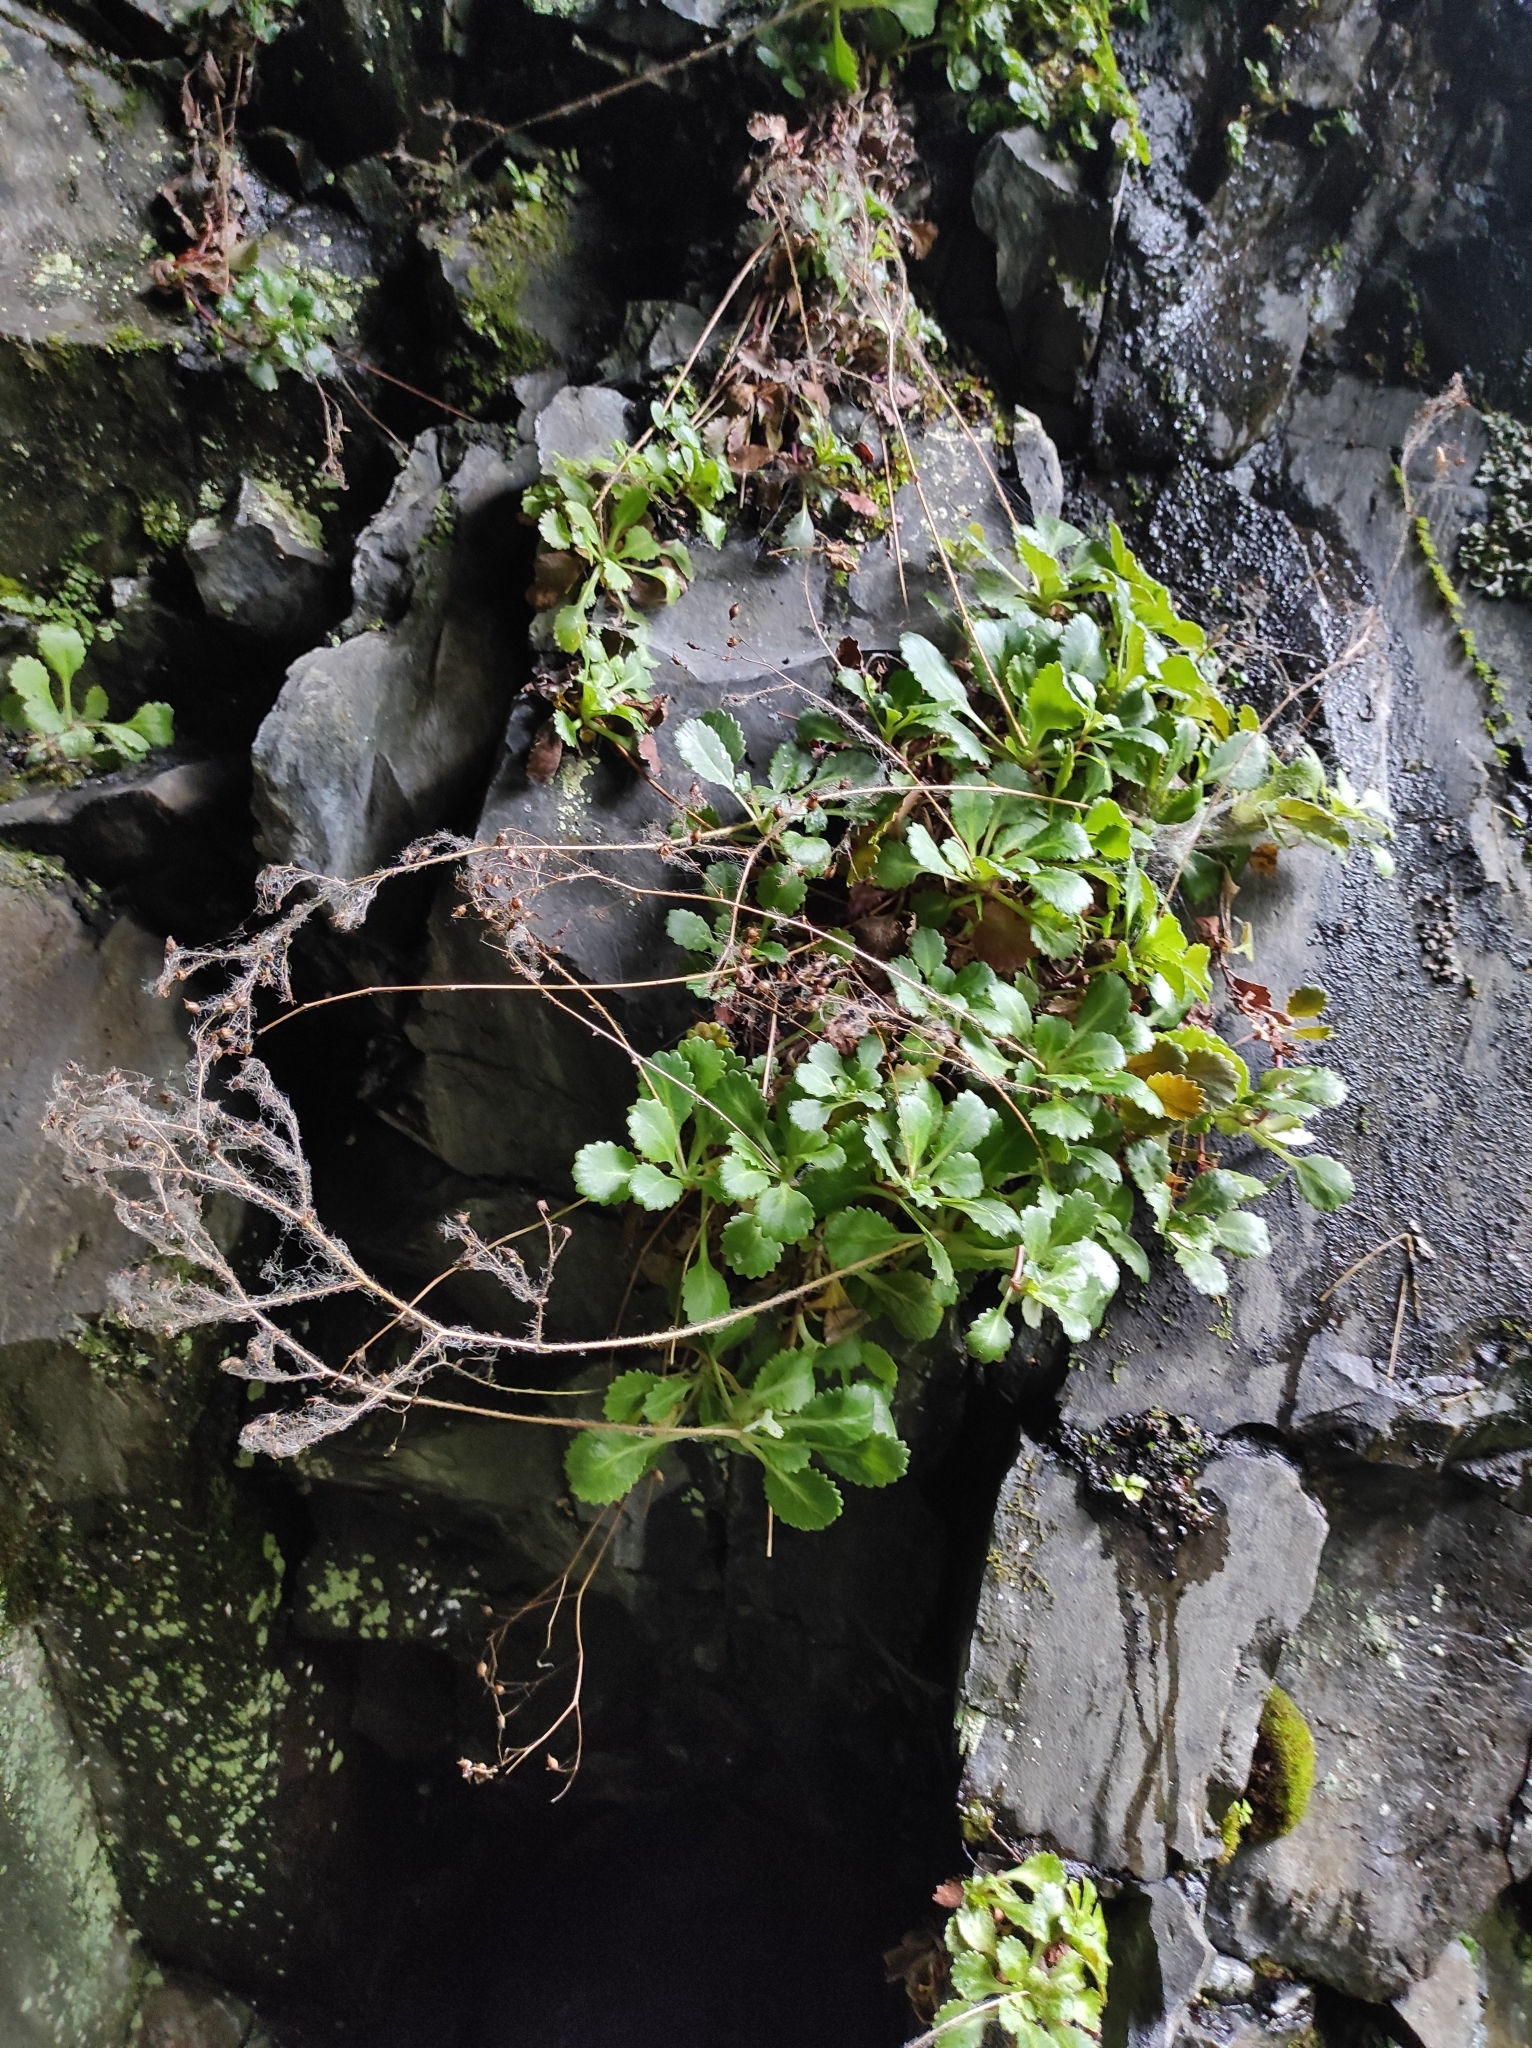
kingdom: Plantae
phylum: Tracheophyta
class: Magnoliopsida
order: Saxifragales
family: Saxifragaceae
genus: Saxifraga
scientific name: Saxifraga spathularis
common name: St patrick's-cabbage
